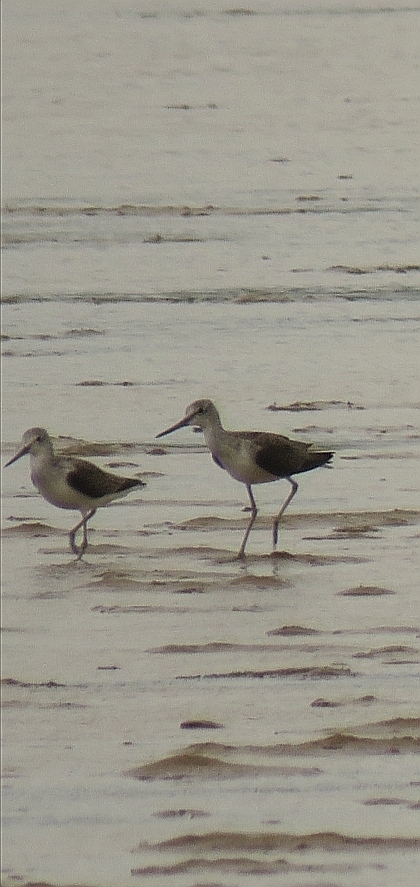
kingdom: Animalia
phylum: Chordata
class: Aves
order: Charadriiformes
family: Scolopacidae
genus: Tringa
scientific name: Tringa nebularia
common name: Common greenshank
